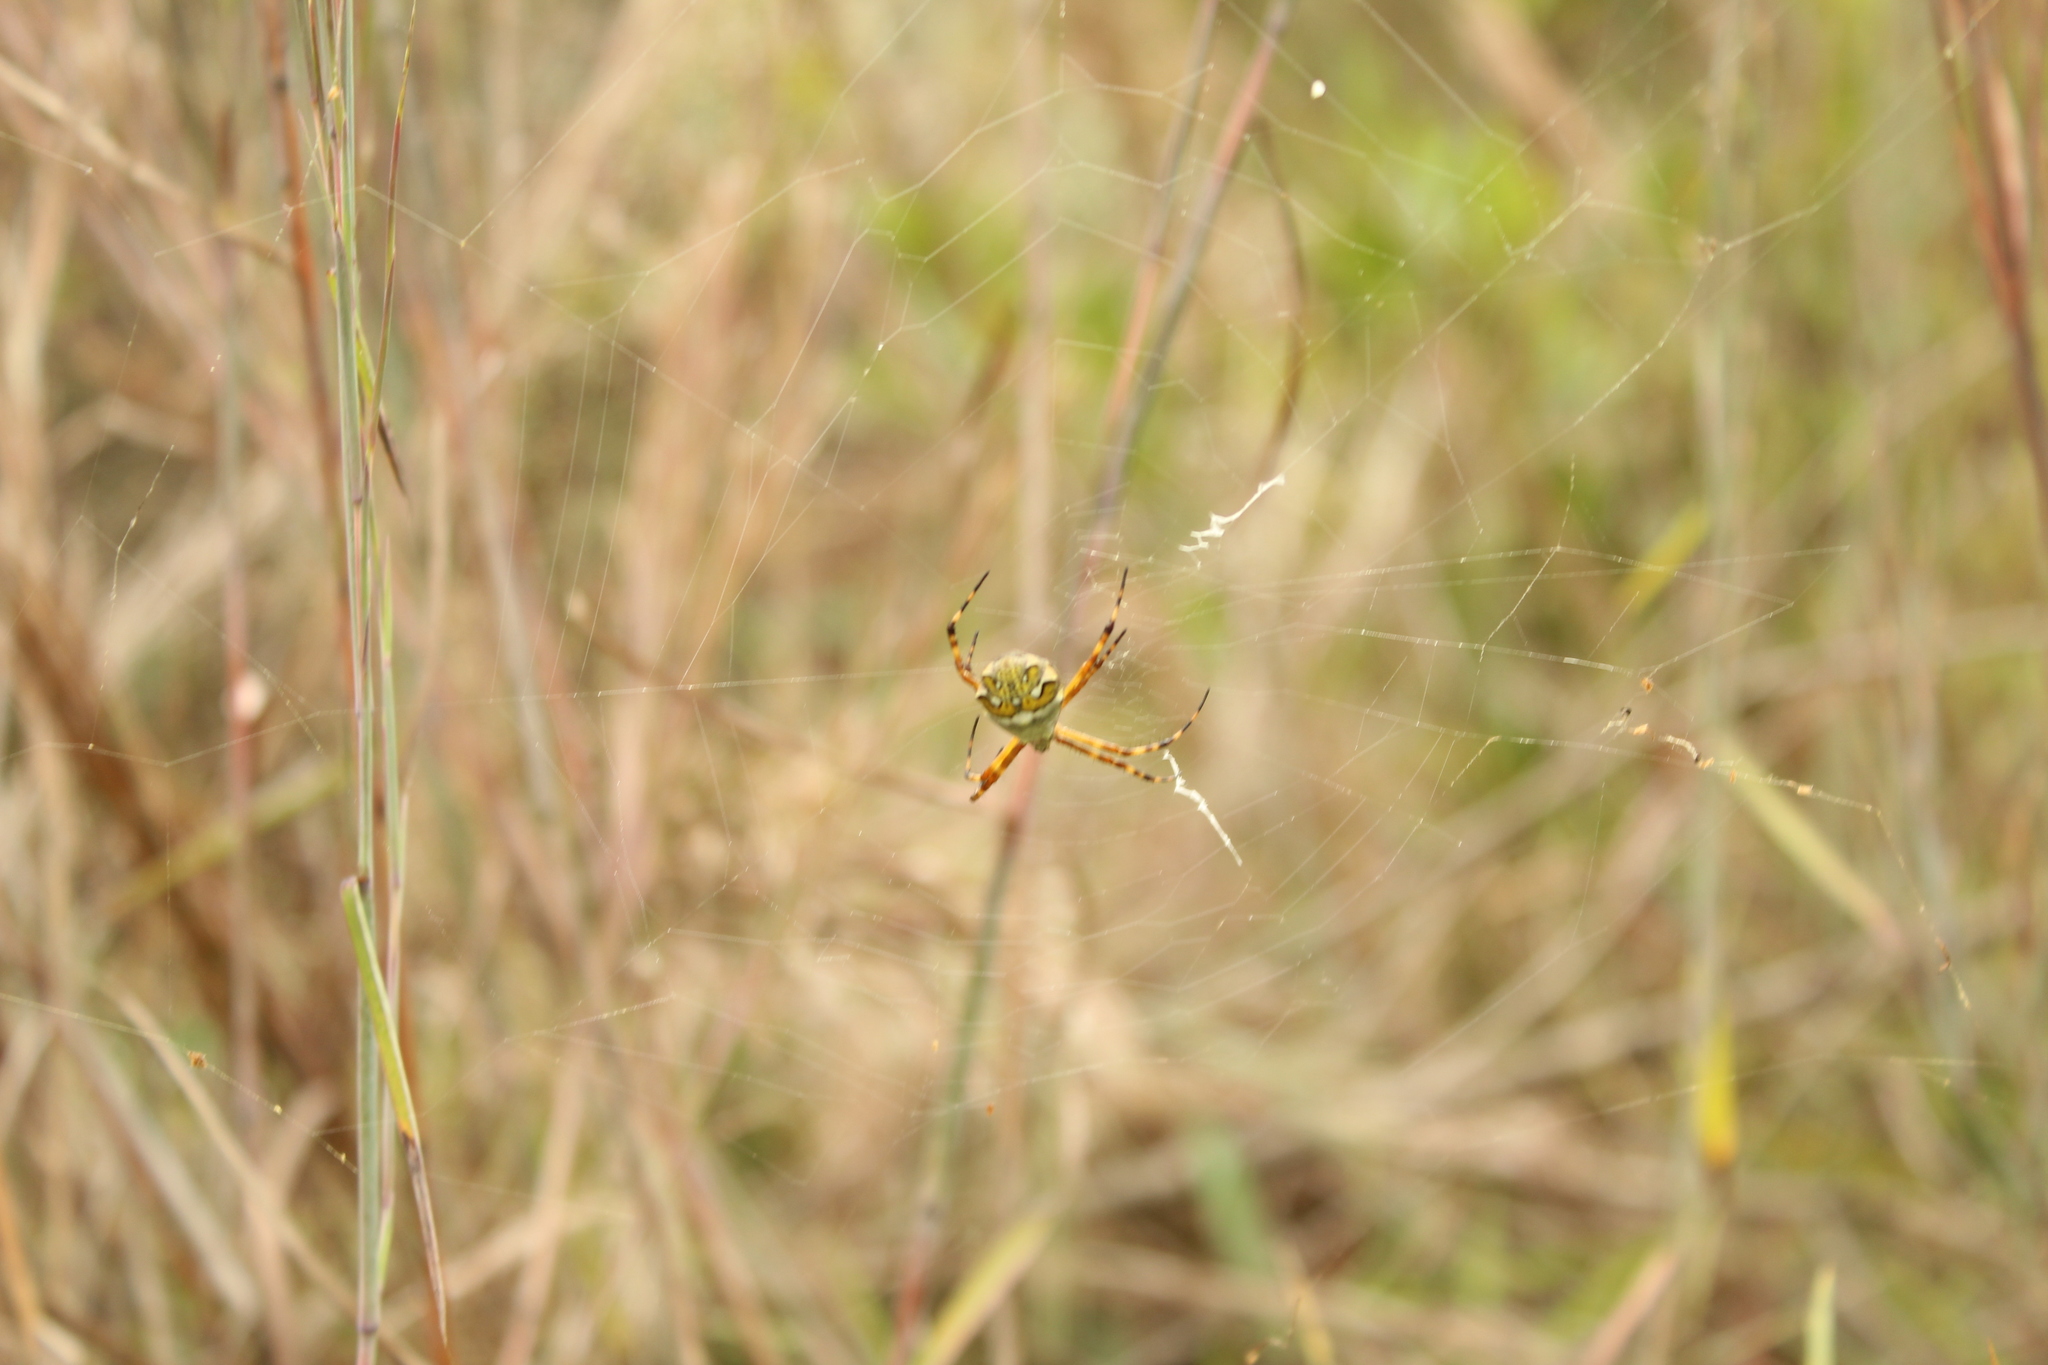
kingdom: Animalia
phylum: Arthropoda
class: Arachnida
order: Araneae
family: Araneidae
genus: Argiope
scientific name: Argiope argentata
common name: Orb weavers
